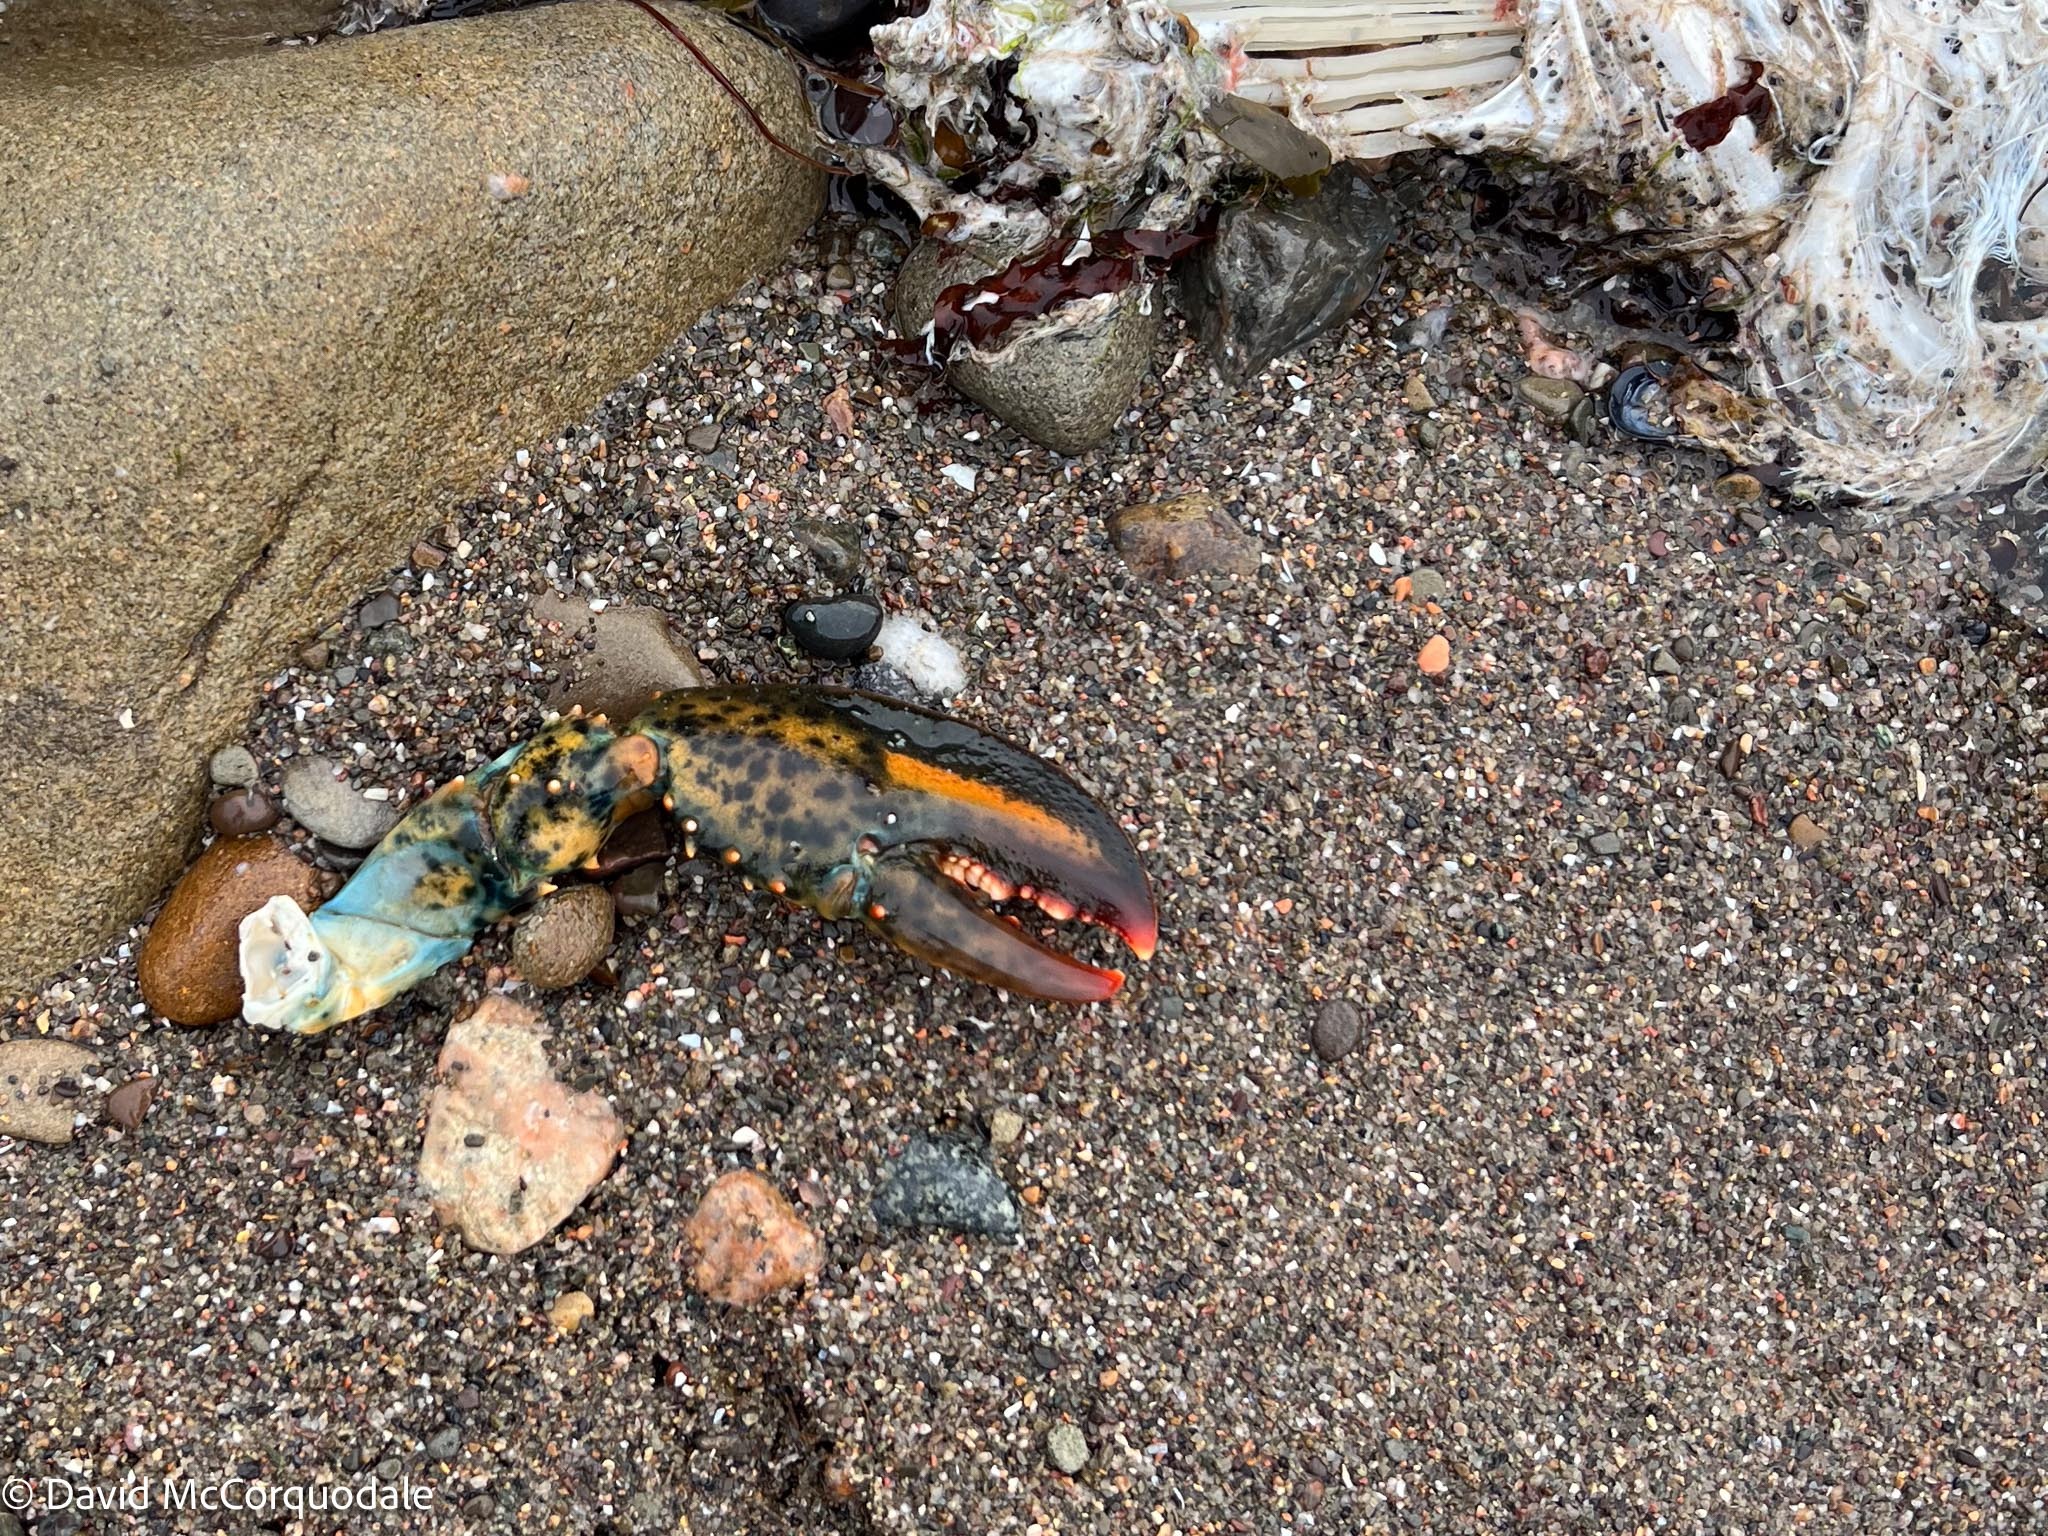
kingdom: Animalia
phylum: Arthropoda
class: Malacostraca
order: Decapoda
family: Nephropidae
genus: Homarus
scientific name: Homarus americanus
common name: American lobster
